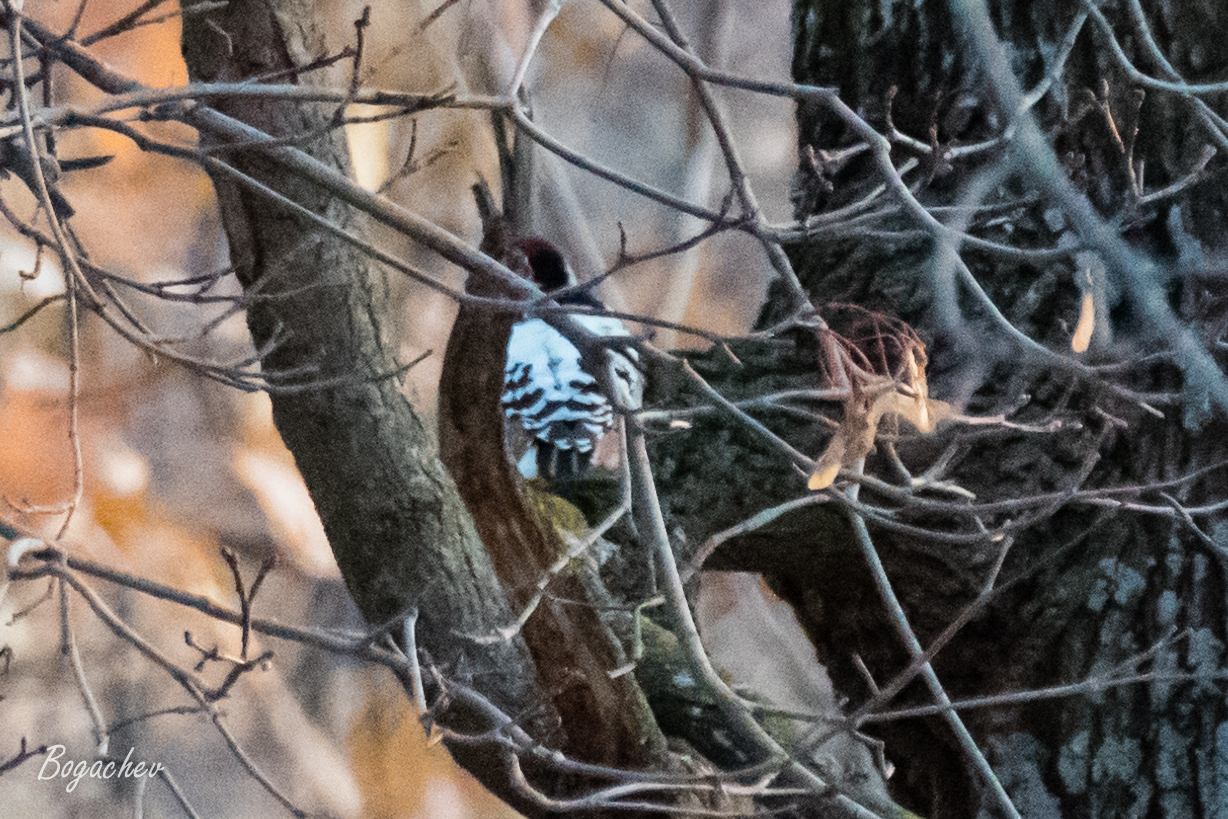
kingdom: Animalia
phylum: Chordata
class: Aves
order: Piciformes
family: Picidae
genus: Dendrocopos
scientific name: Dendrocopos leucotos
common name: White-backed woodpecker
